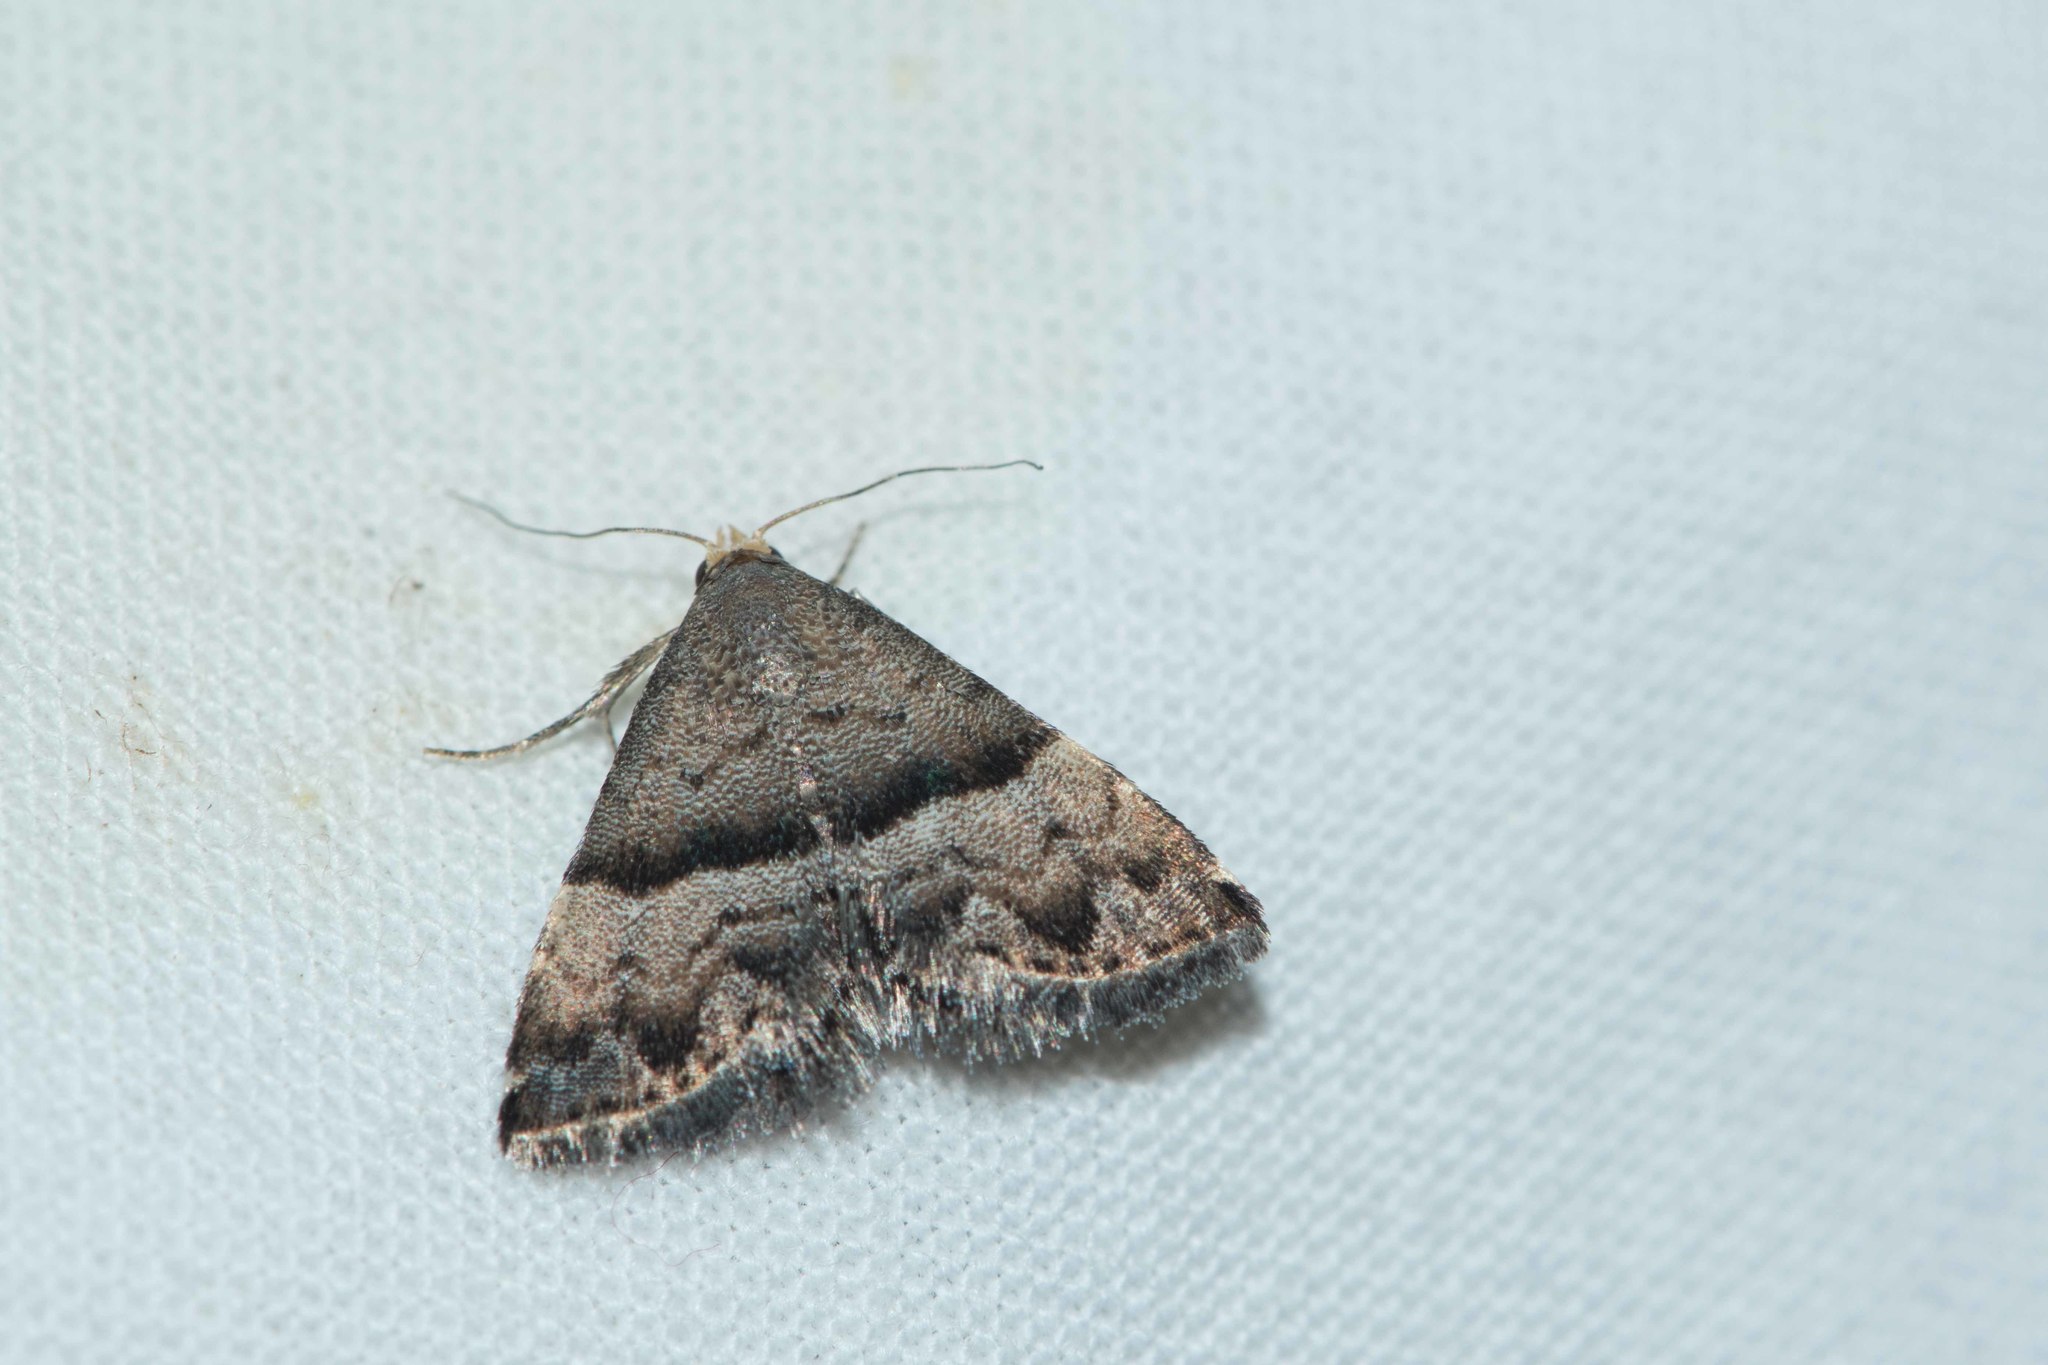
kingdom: Animalia
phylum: Arthropoda
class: Insecta
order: Lepidoptera
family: Noctuidae
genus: Odice
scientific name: Odice jucunda
